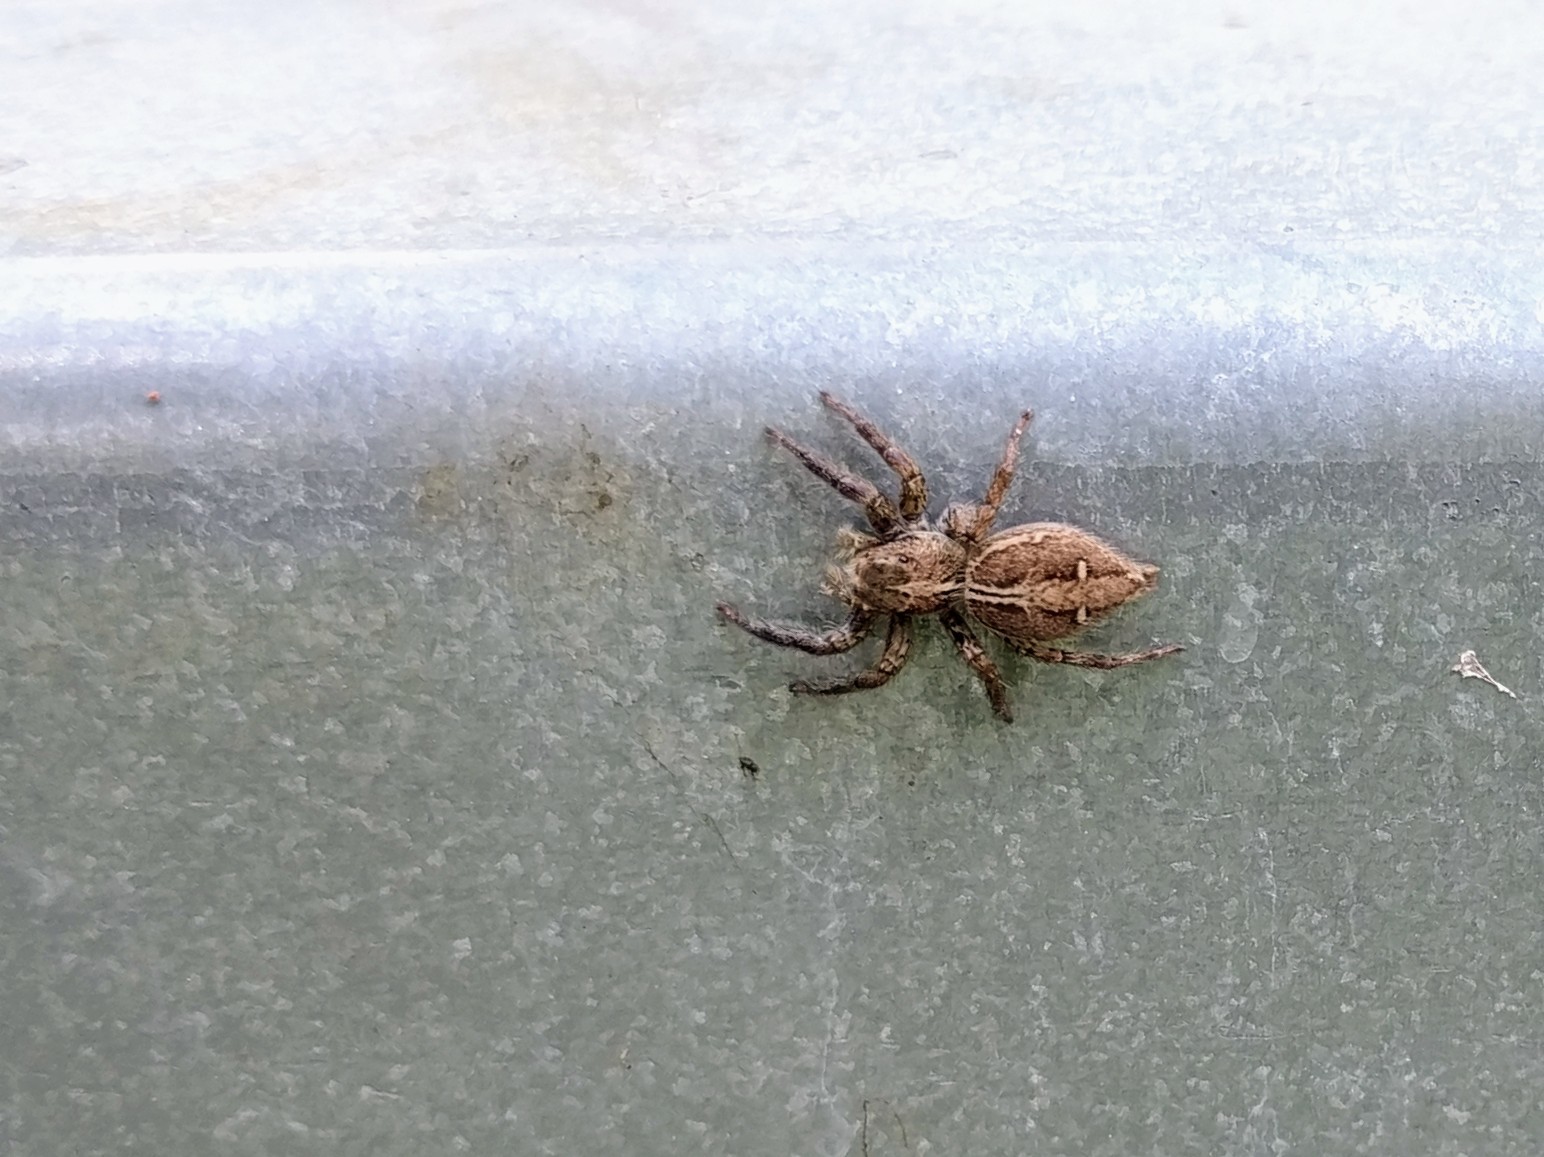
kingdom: Animalia
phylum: Arthropoda
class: Arachnida
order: Araneae
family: Salticidae
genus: Plexippus
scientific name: Plexippus paykulli
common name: Pantropical jumper
